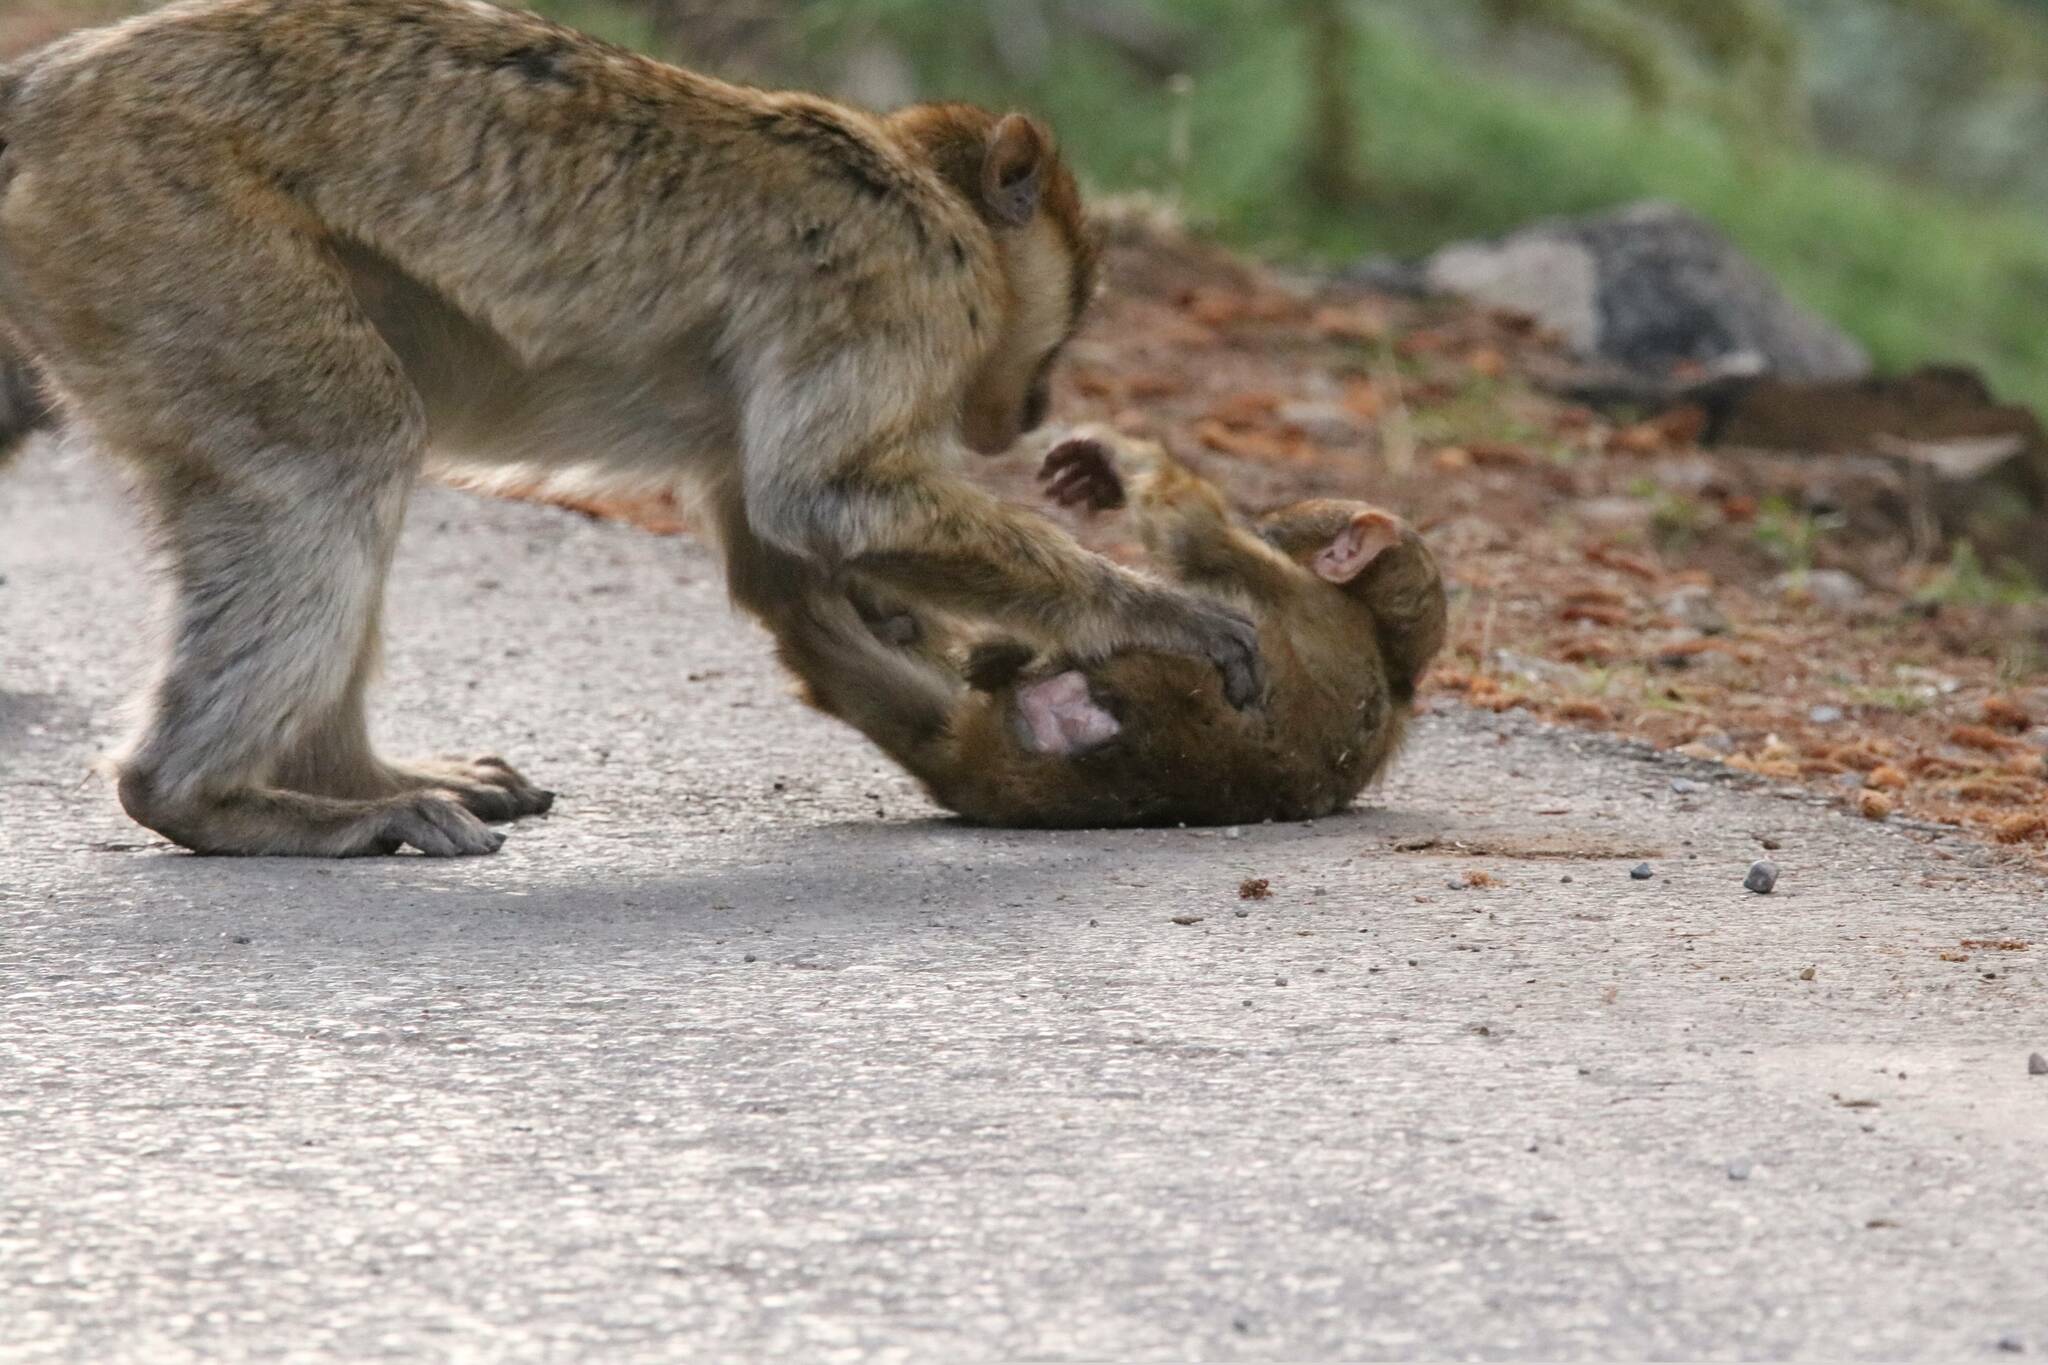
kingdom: Animalia
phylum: Chordata
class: Mammalia
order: Primates
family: Cercopithecidae
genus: Macaca
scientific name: Macaca sylvanus
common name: Barbary macaque
